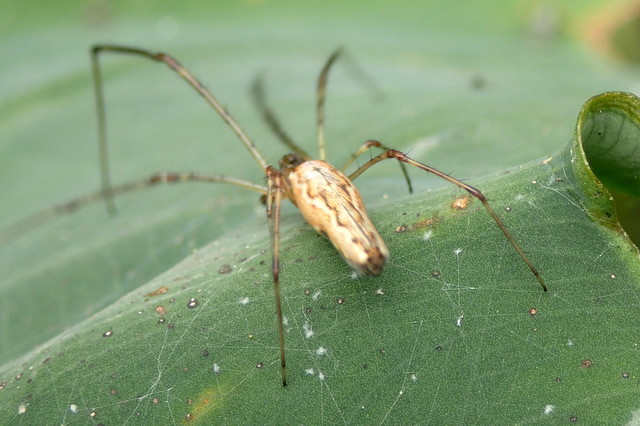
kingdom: Animalia
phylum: Arthropoda
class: Arachnida
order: Araneae
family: Tetragnathidae
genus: Tetragnatha
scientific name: Tetragnatha
